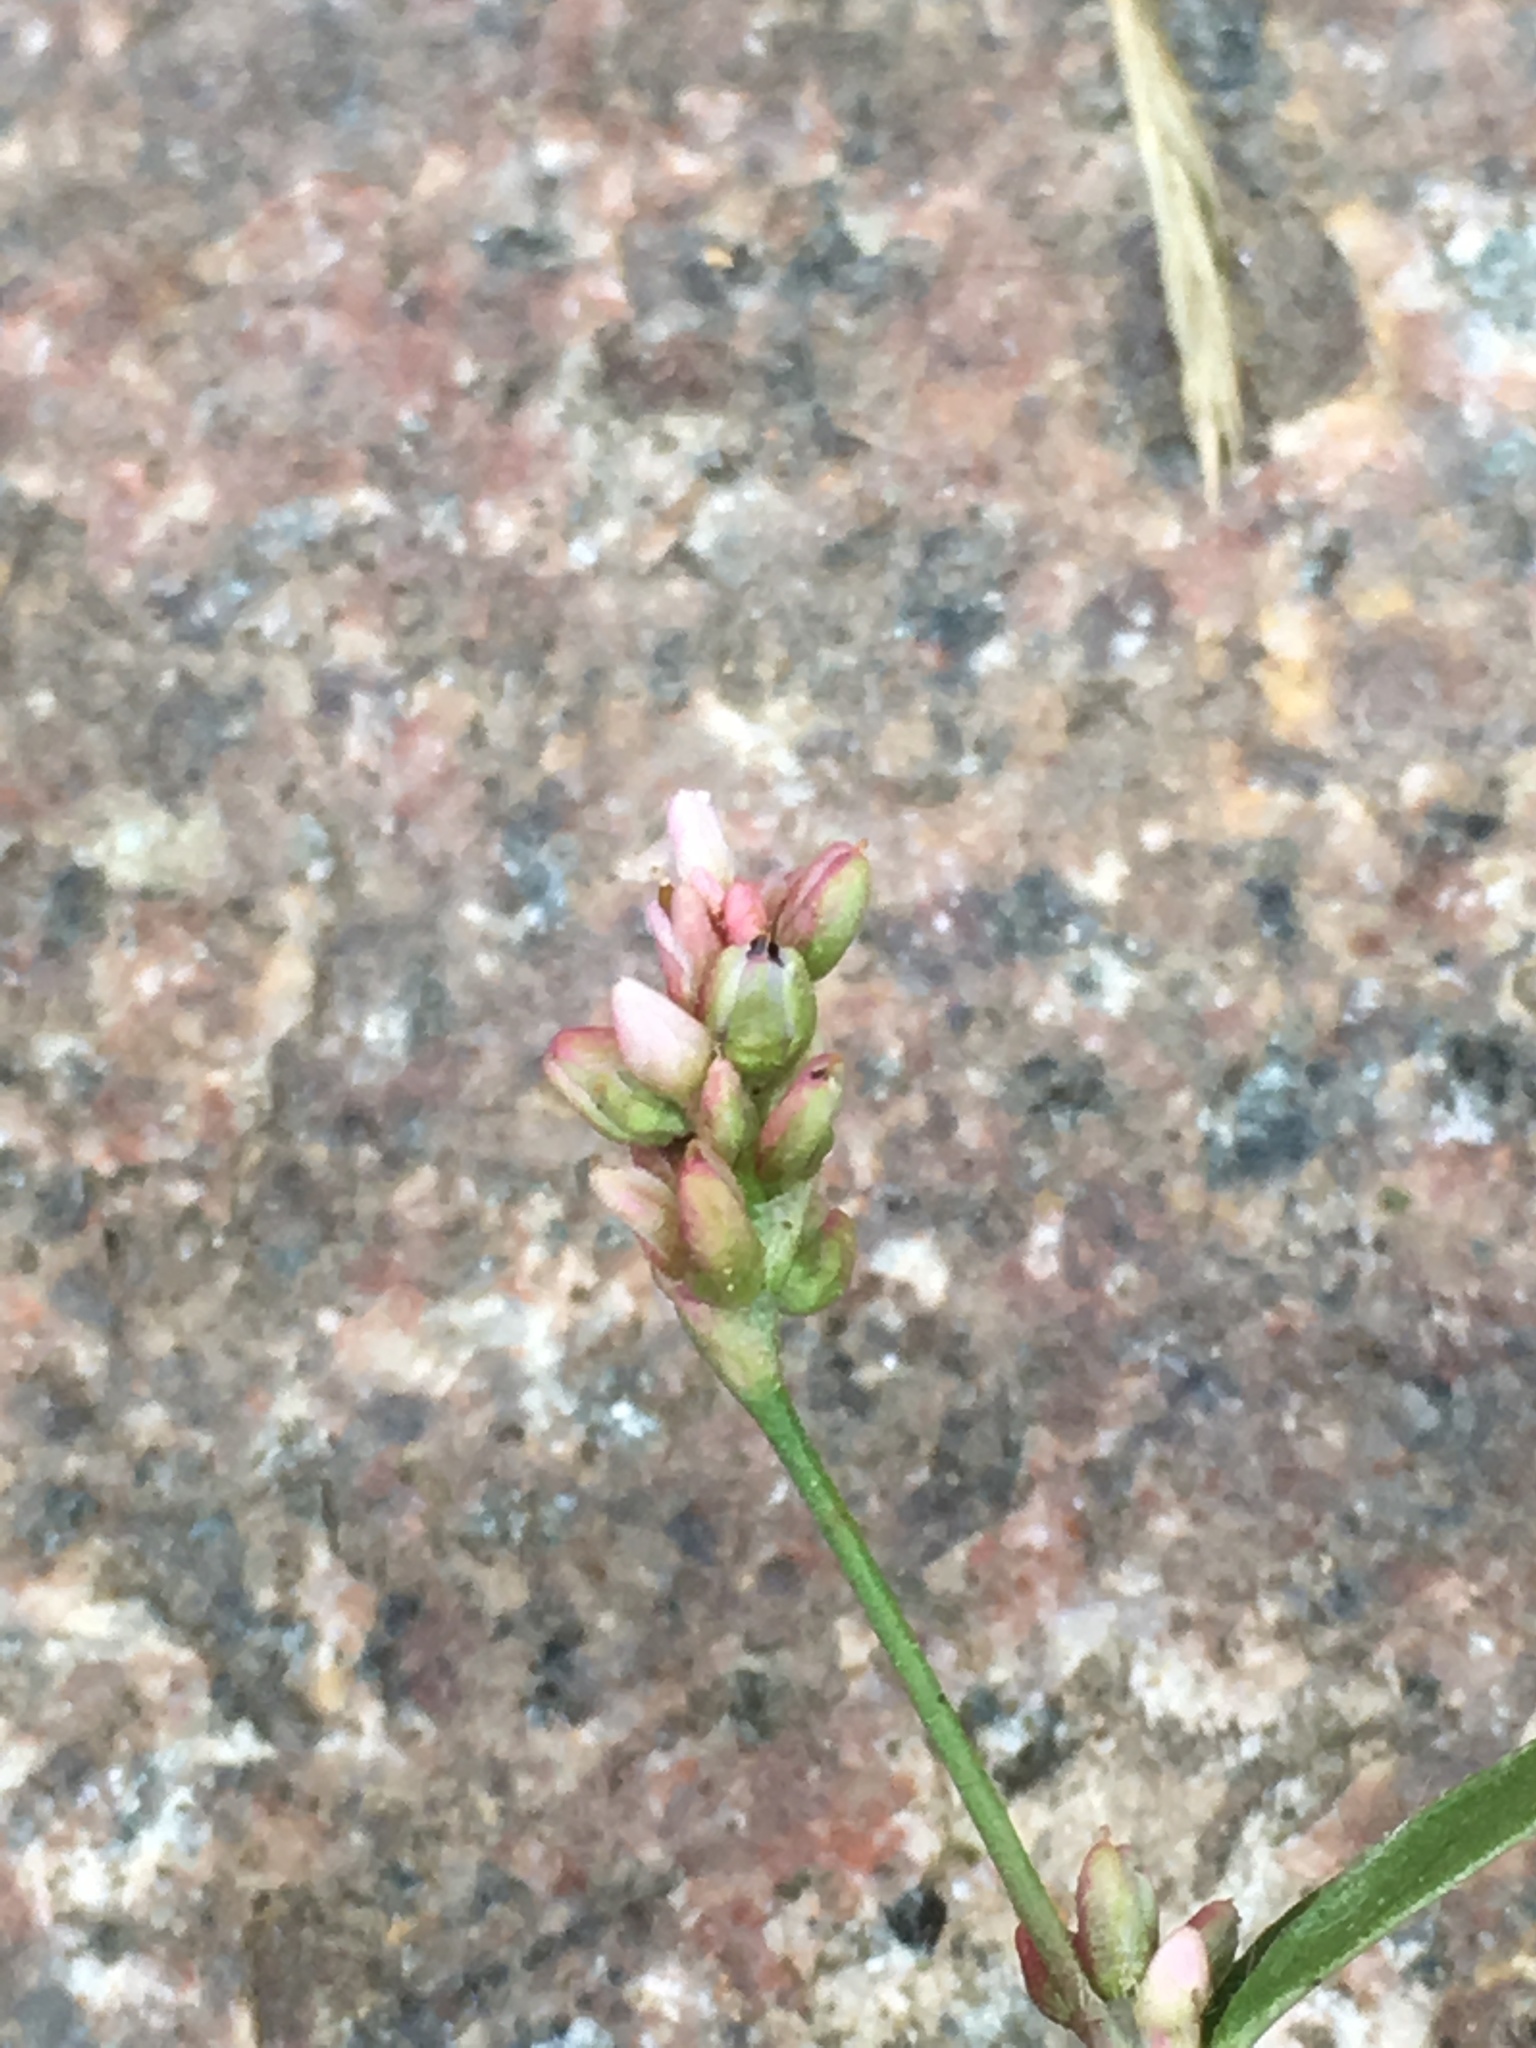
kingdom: Plantae
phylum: Tracheophyta
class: Magnoliopsida
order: Caryophyllales
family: Polygonaceae
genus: Persicaria
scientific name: Persicaria maculosa
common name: Redshank
